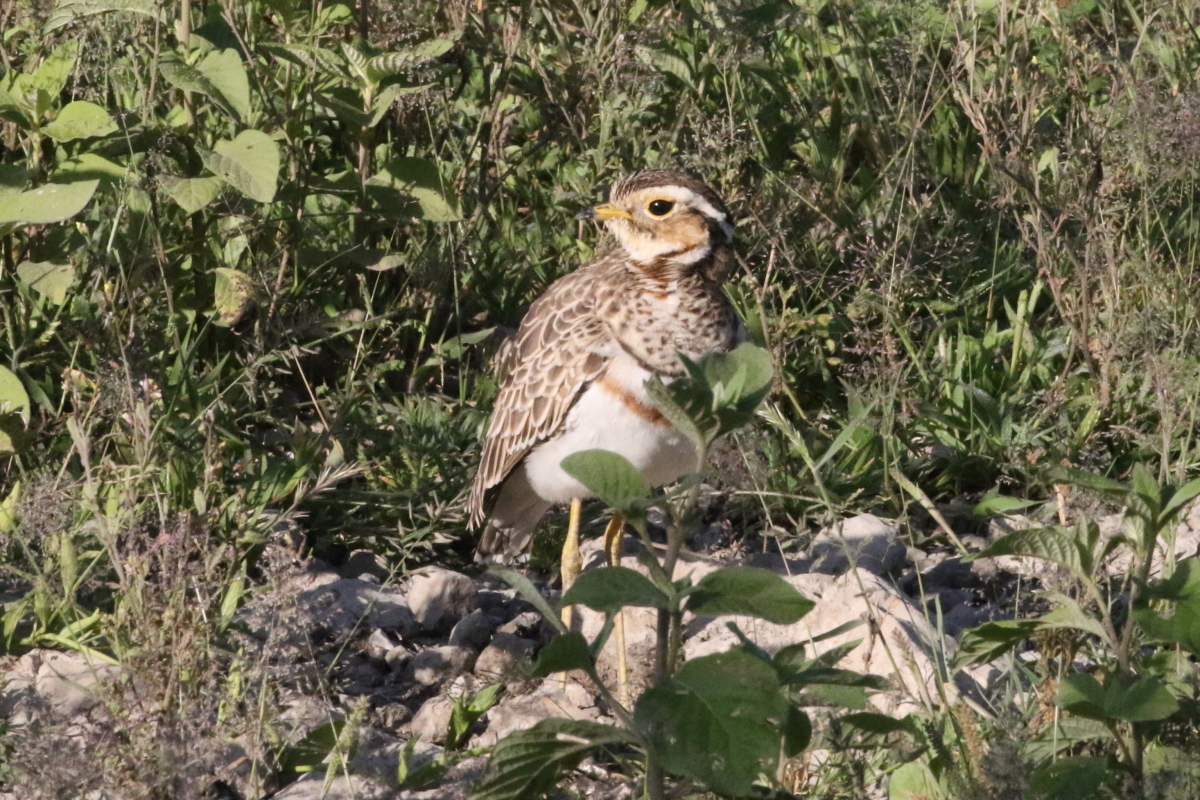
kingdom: Animalia
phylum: Chordata
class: Aves
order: Charadriiformes
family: Glareolidae
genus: Rhinoptilus
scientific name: Rhinoptilus cinctus
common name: Three-banded courser
